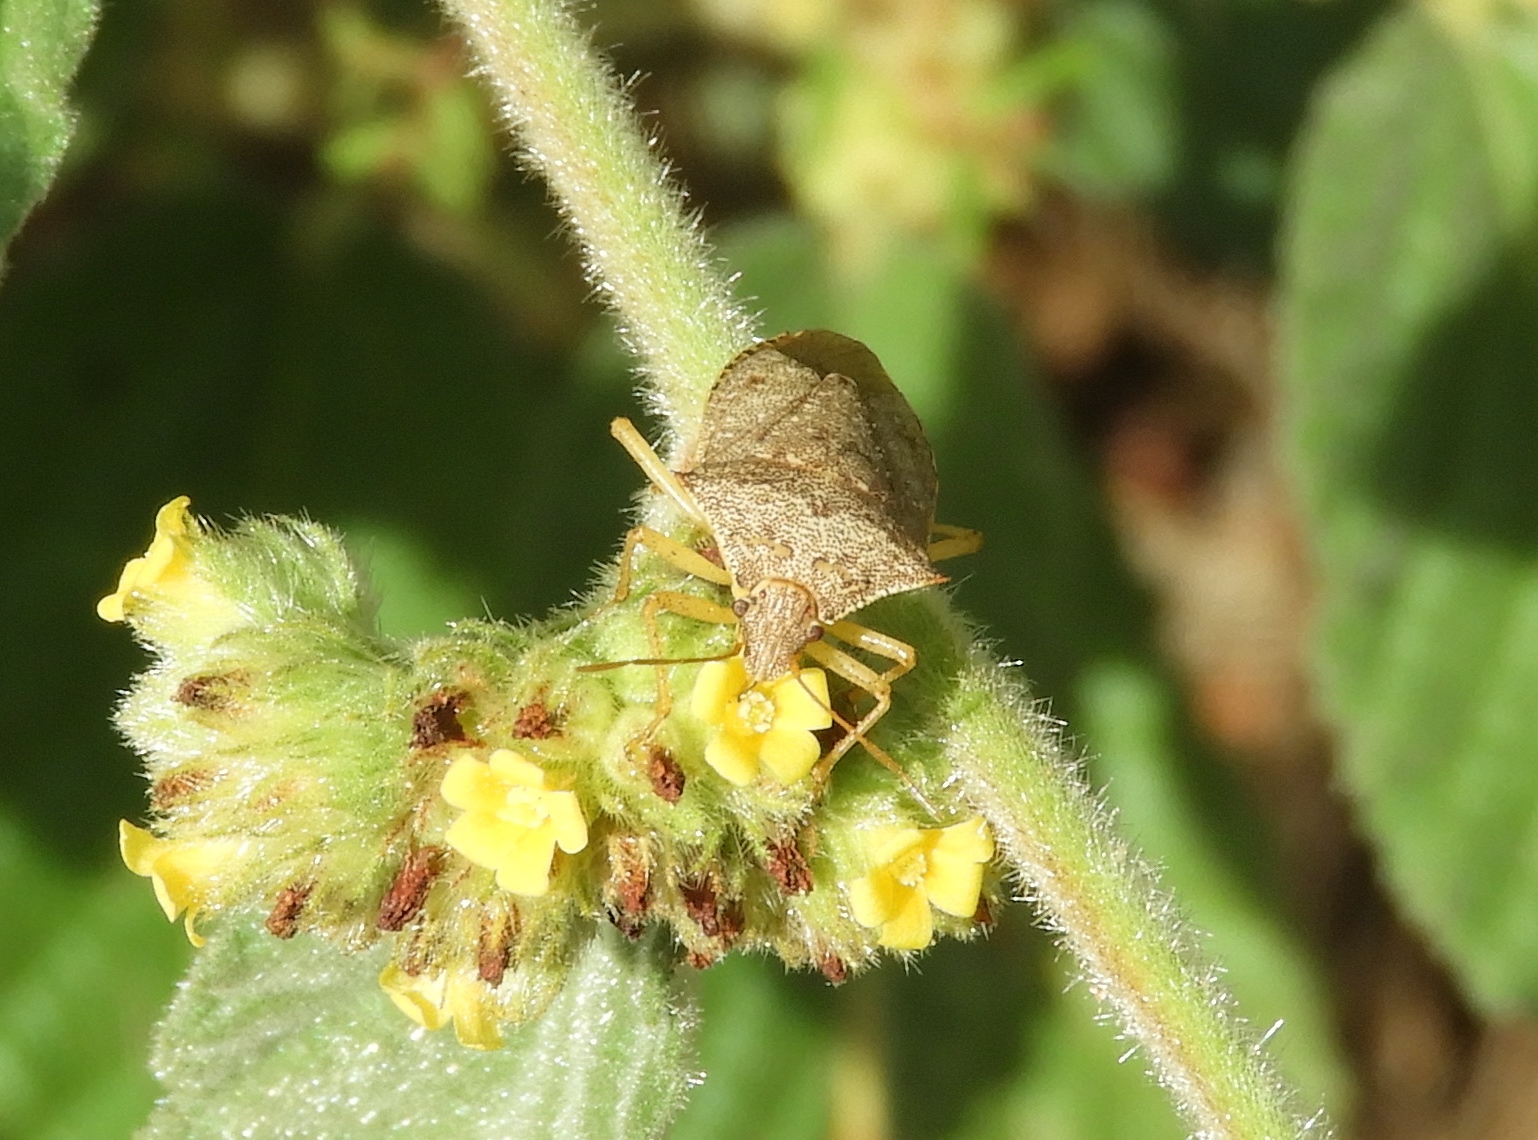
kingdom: Animalia
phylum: Arthropoda
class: Insecta
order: Hemiptera
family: Pentatomidae
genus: Euschistus
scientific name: Euschistus
